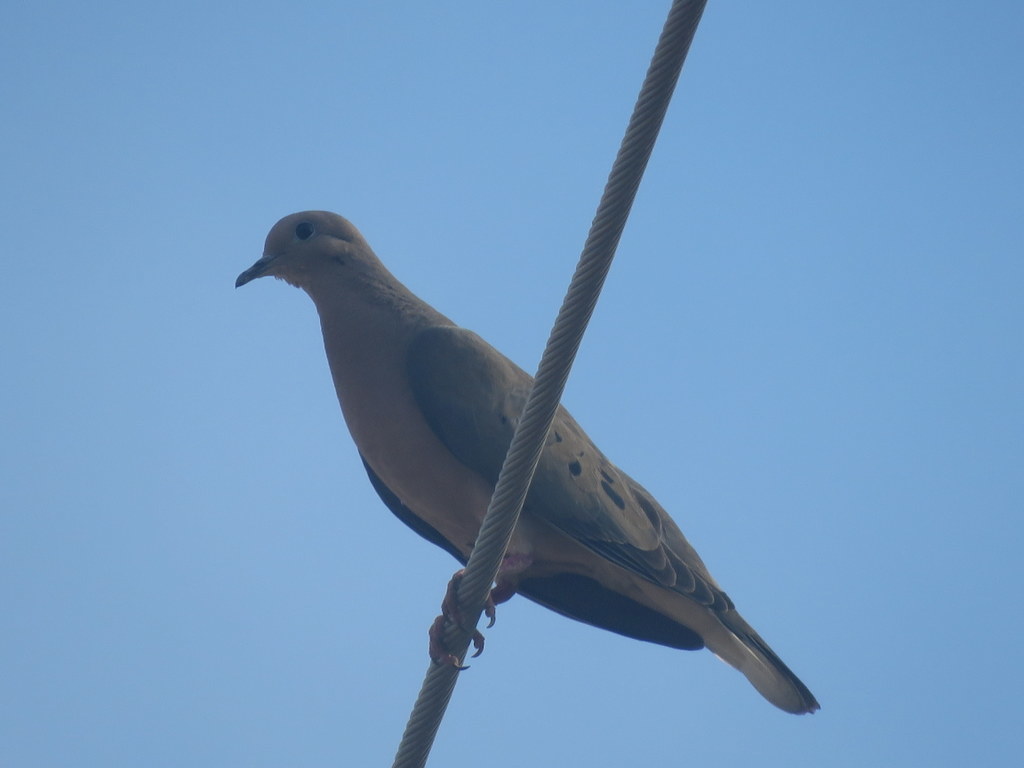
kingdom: Animalia
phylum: Chordata
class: Aves
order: Columbiformes
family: Columbidae
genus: Zenaida
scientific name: Zenaida auriculata
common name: Eared dove
